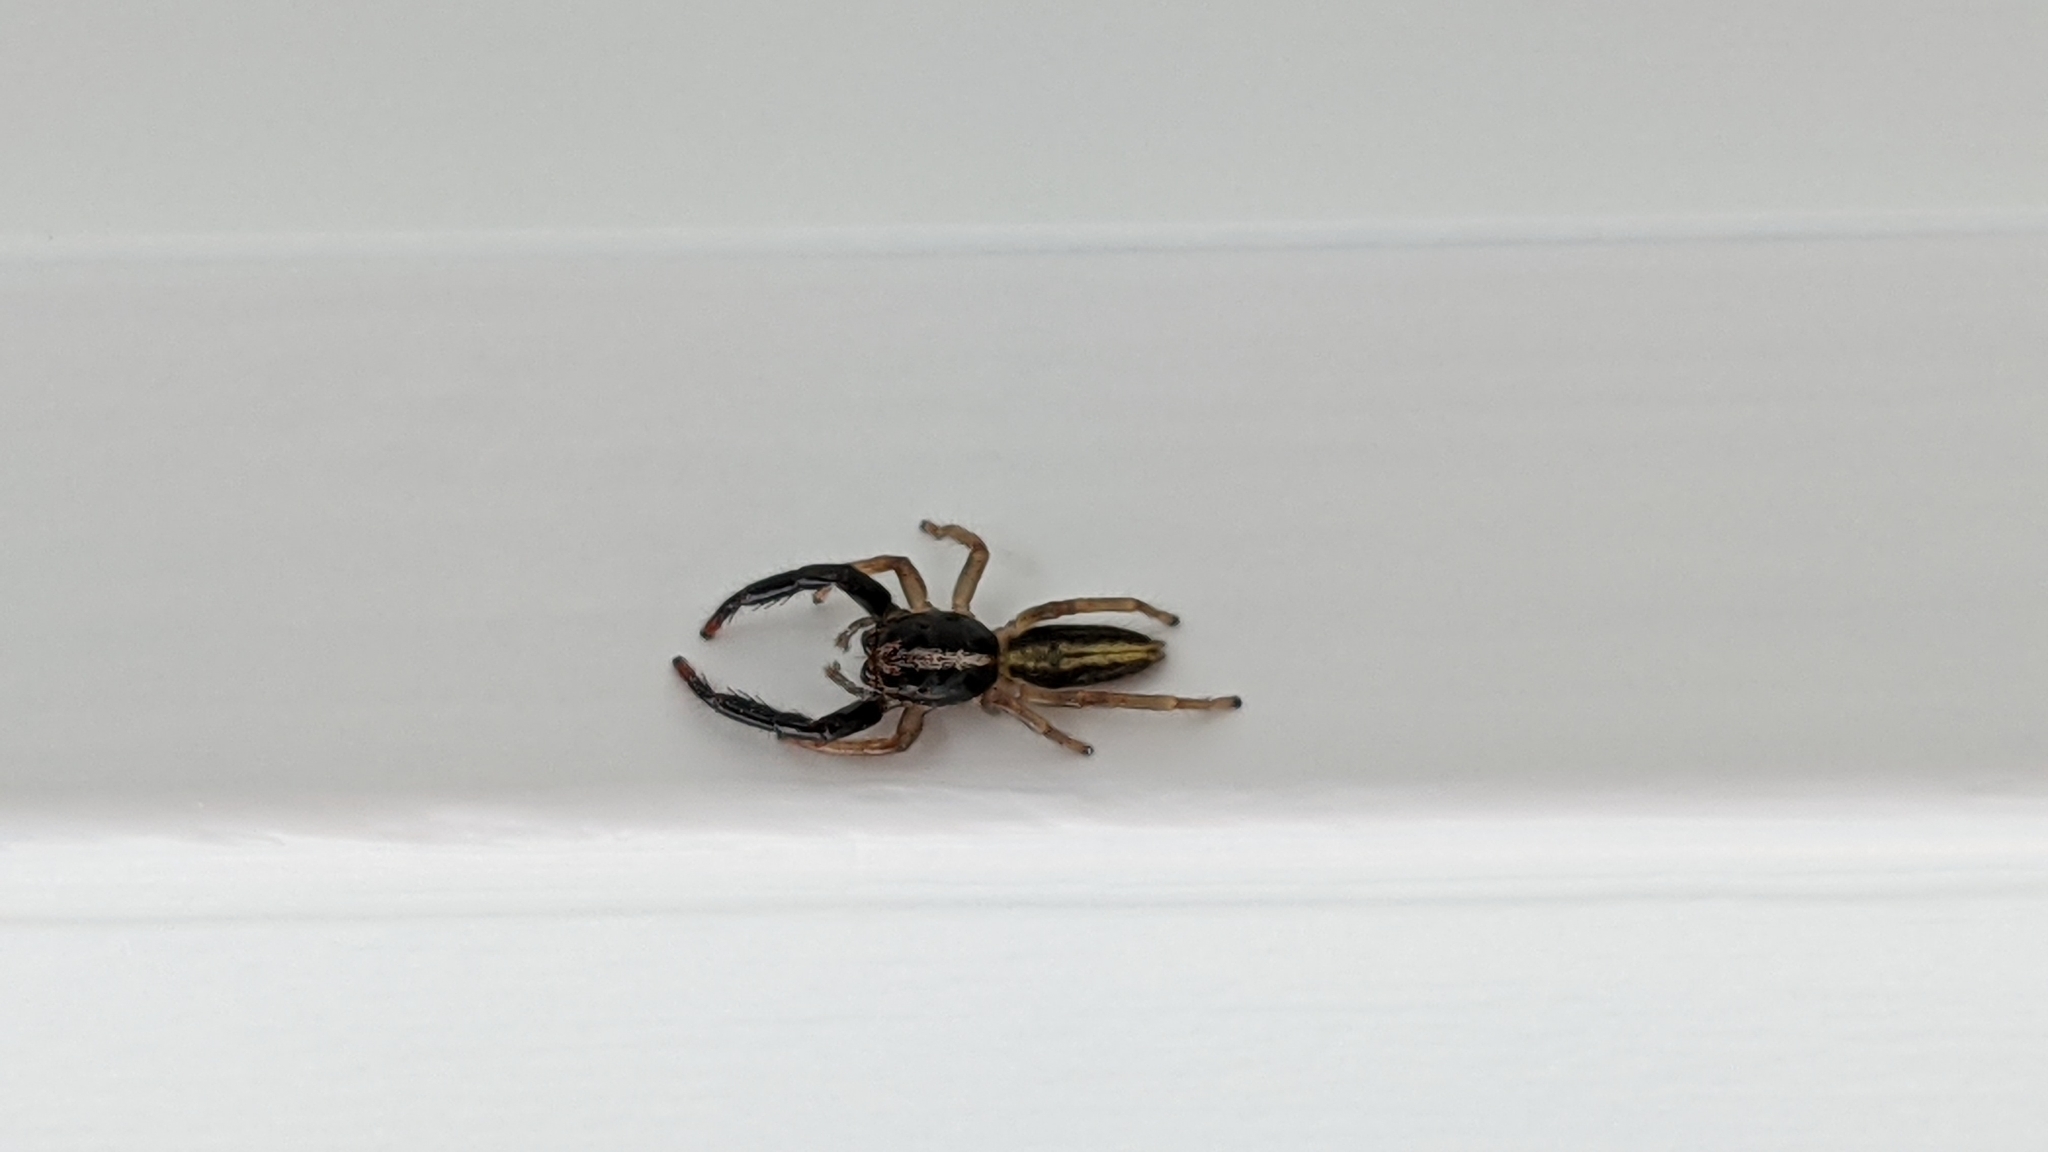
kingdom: Animalia
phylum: Arthropoda
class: Arachnida
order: Araneae
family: Salticidae
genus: Trite
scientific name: Trite planiceps
